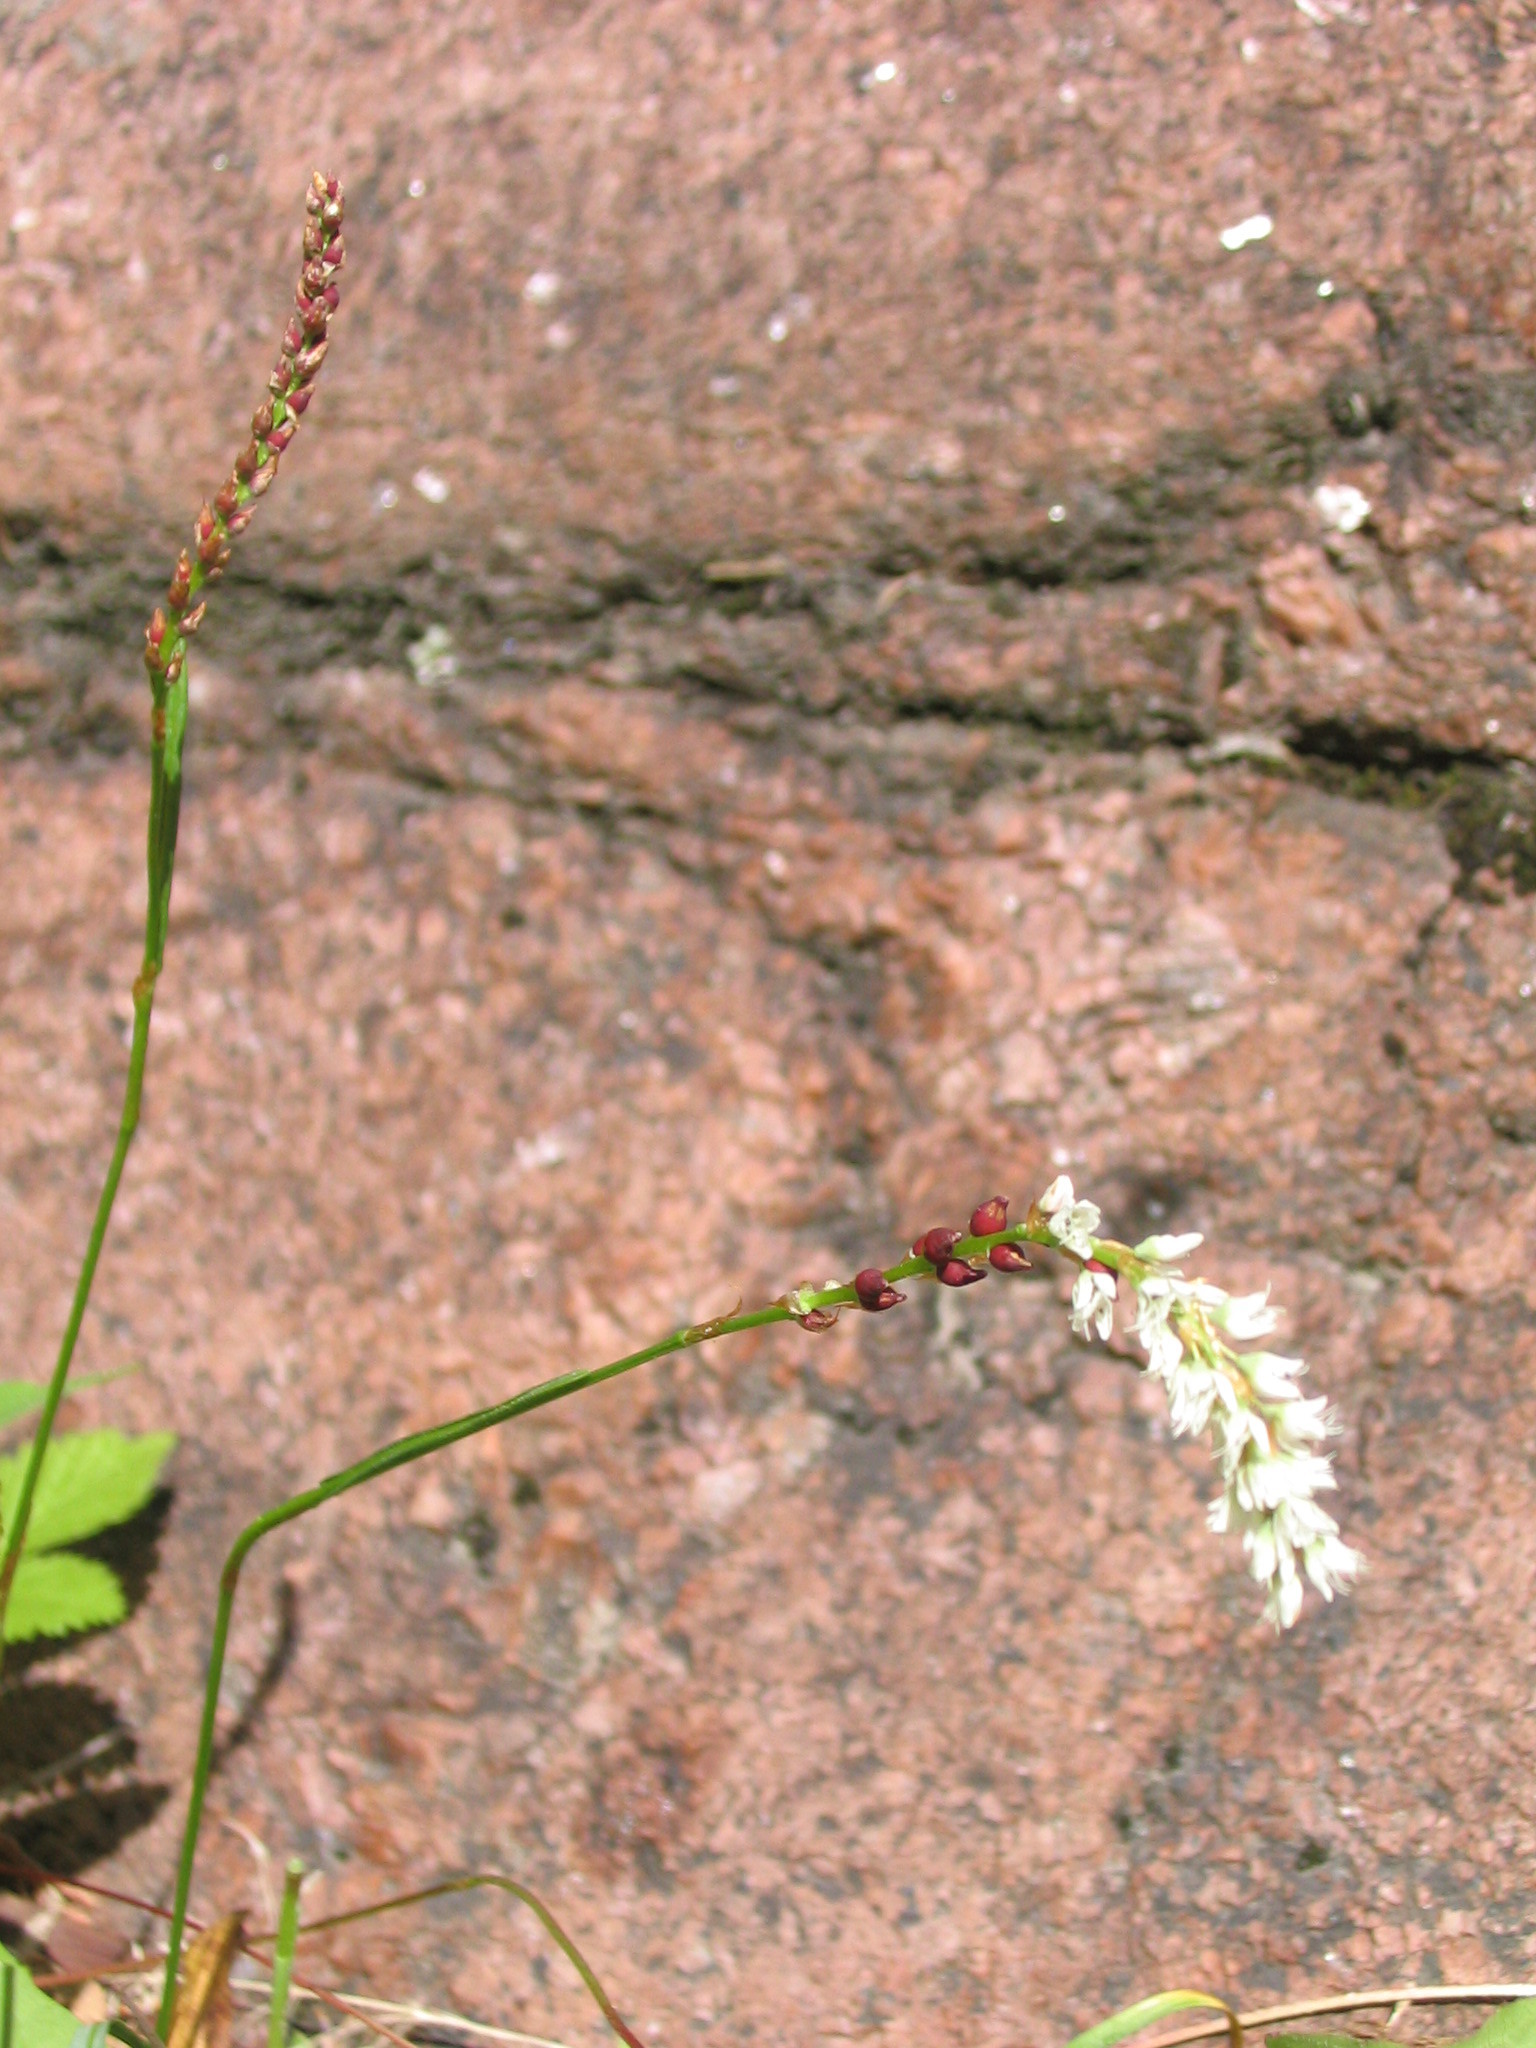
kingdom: Plantae
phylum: Tracheophyta
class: Magnoliopsida
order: Caryophyllales
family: Polygonaceae
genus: Bistorta
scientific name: Bistorta vivipara
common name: Alpine bistort
